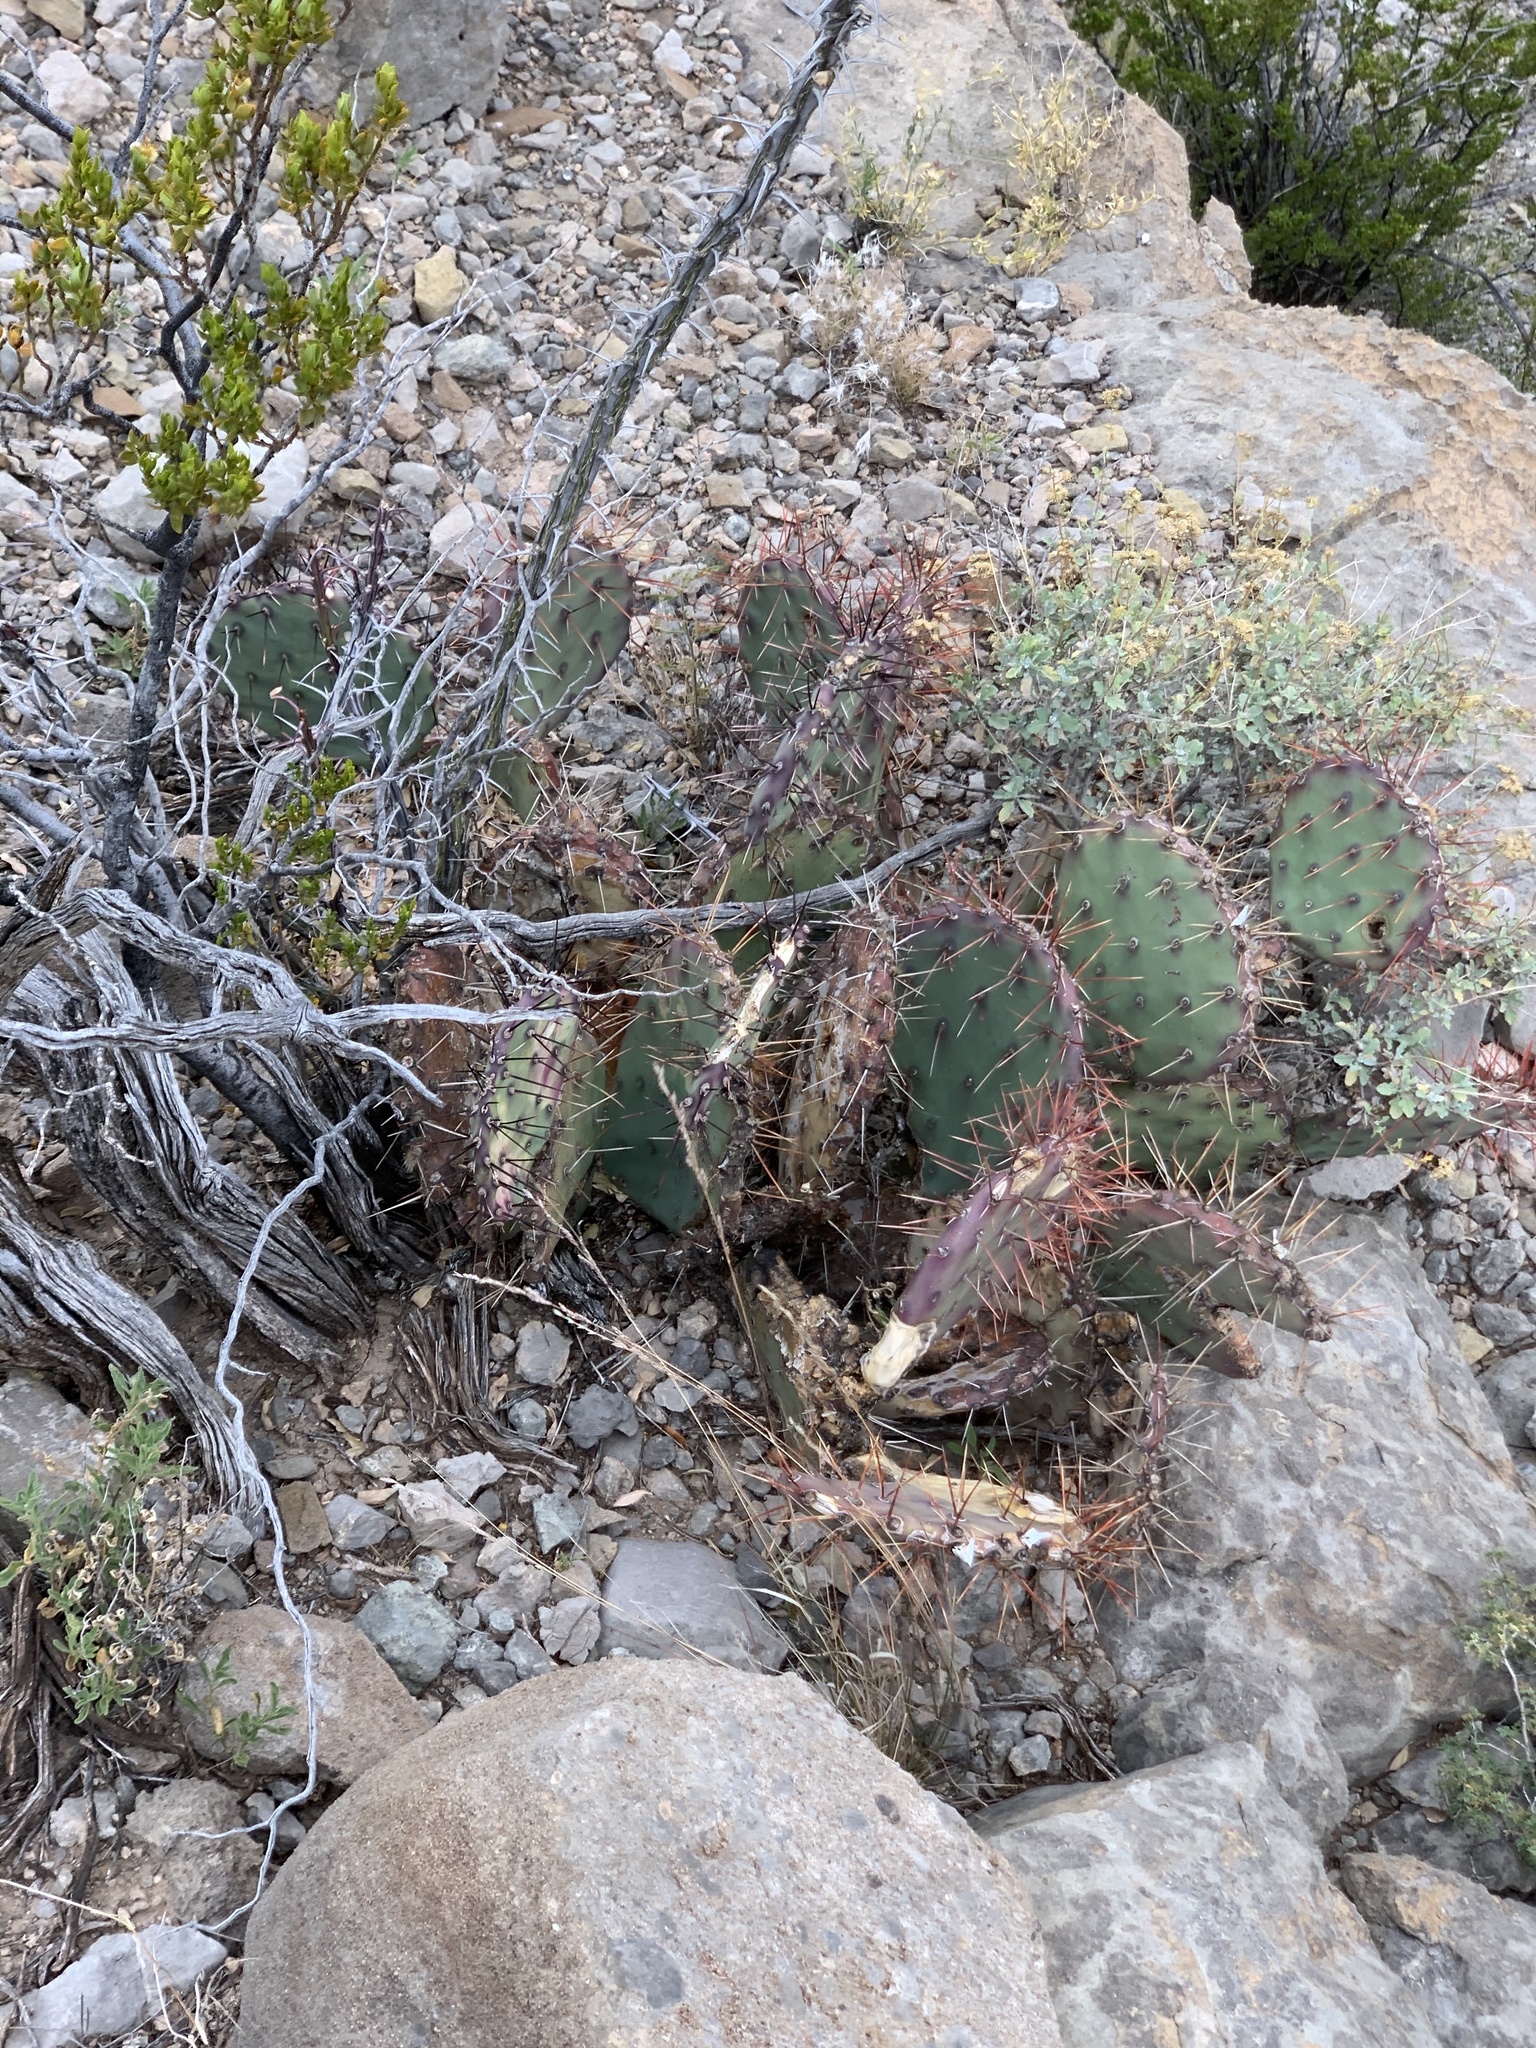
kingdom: Plantae
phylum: Tracheophyta
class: Magnoliopsida
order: Caryophyllales
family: Cactaceae
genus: Opuntia
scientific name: Opuntia macrocentra
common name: Purple prickly-pear
